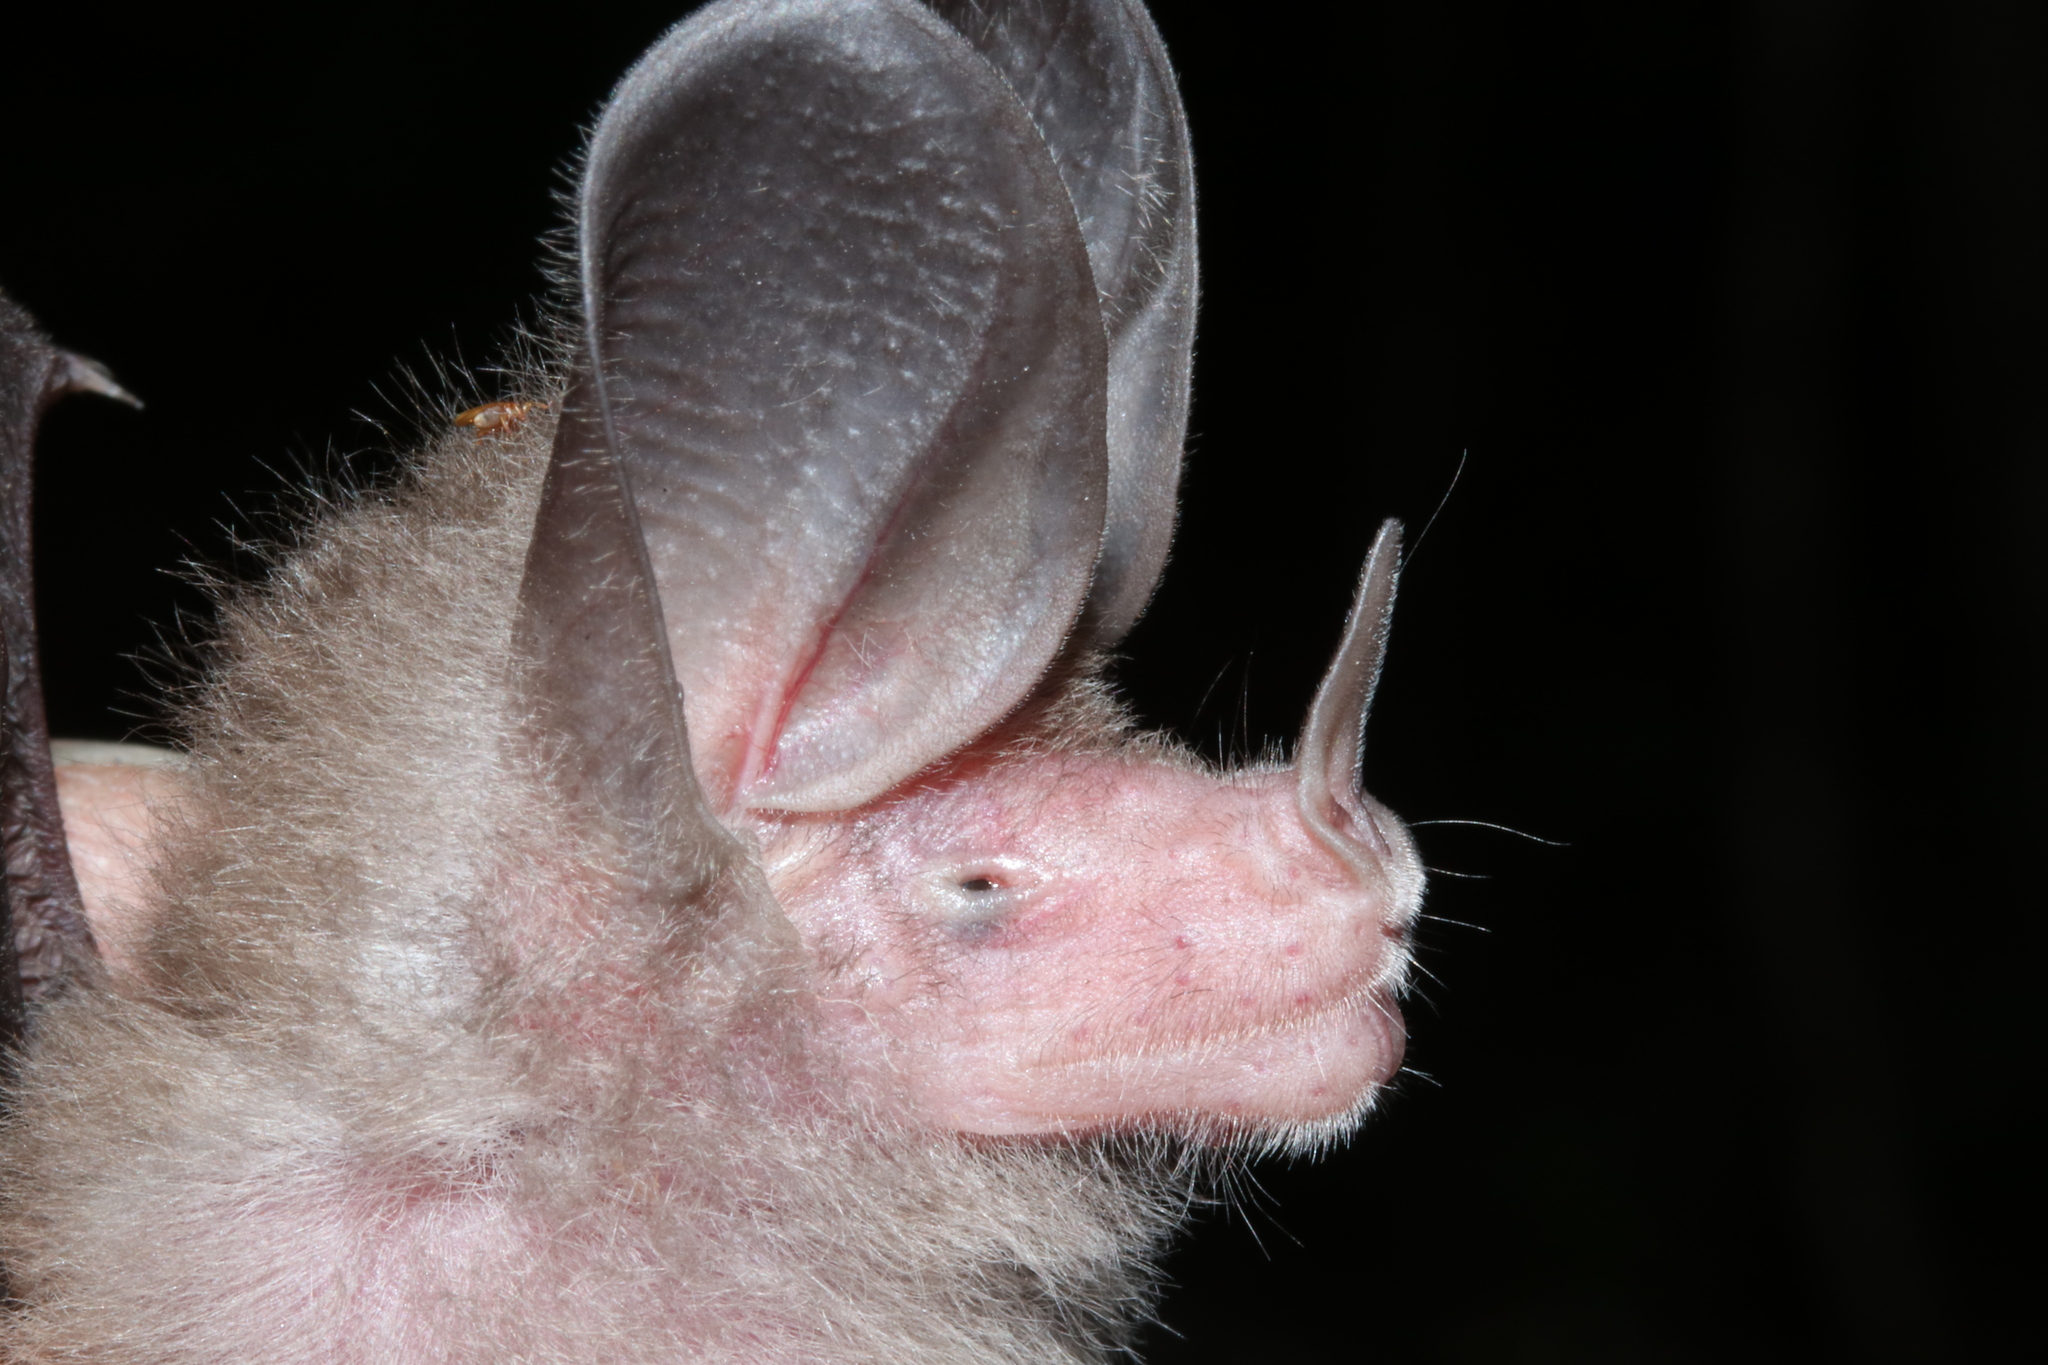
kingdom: Animalia
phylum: Chordata
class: Mammalia
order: Chiroptera
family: Phyllostomidae
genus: Micronycteris
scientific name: Micronycteris microtis
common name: Common big-eared bat
